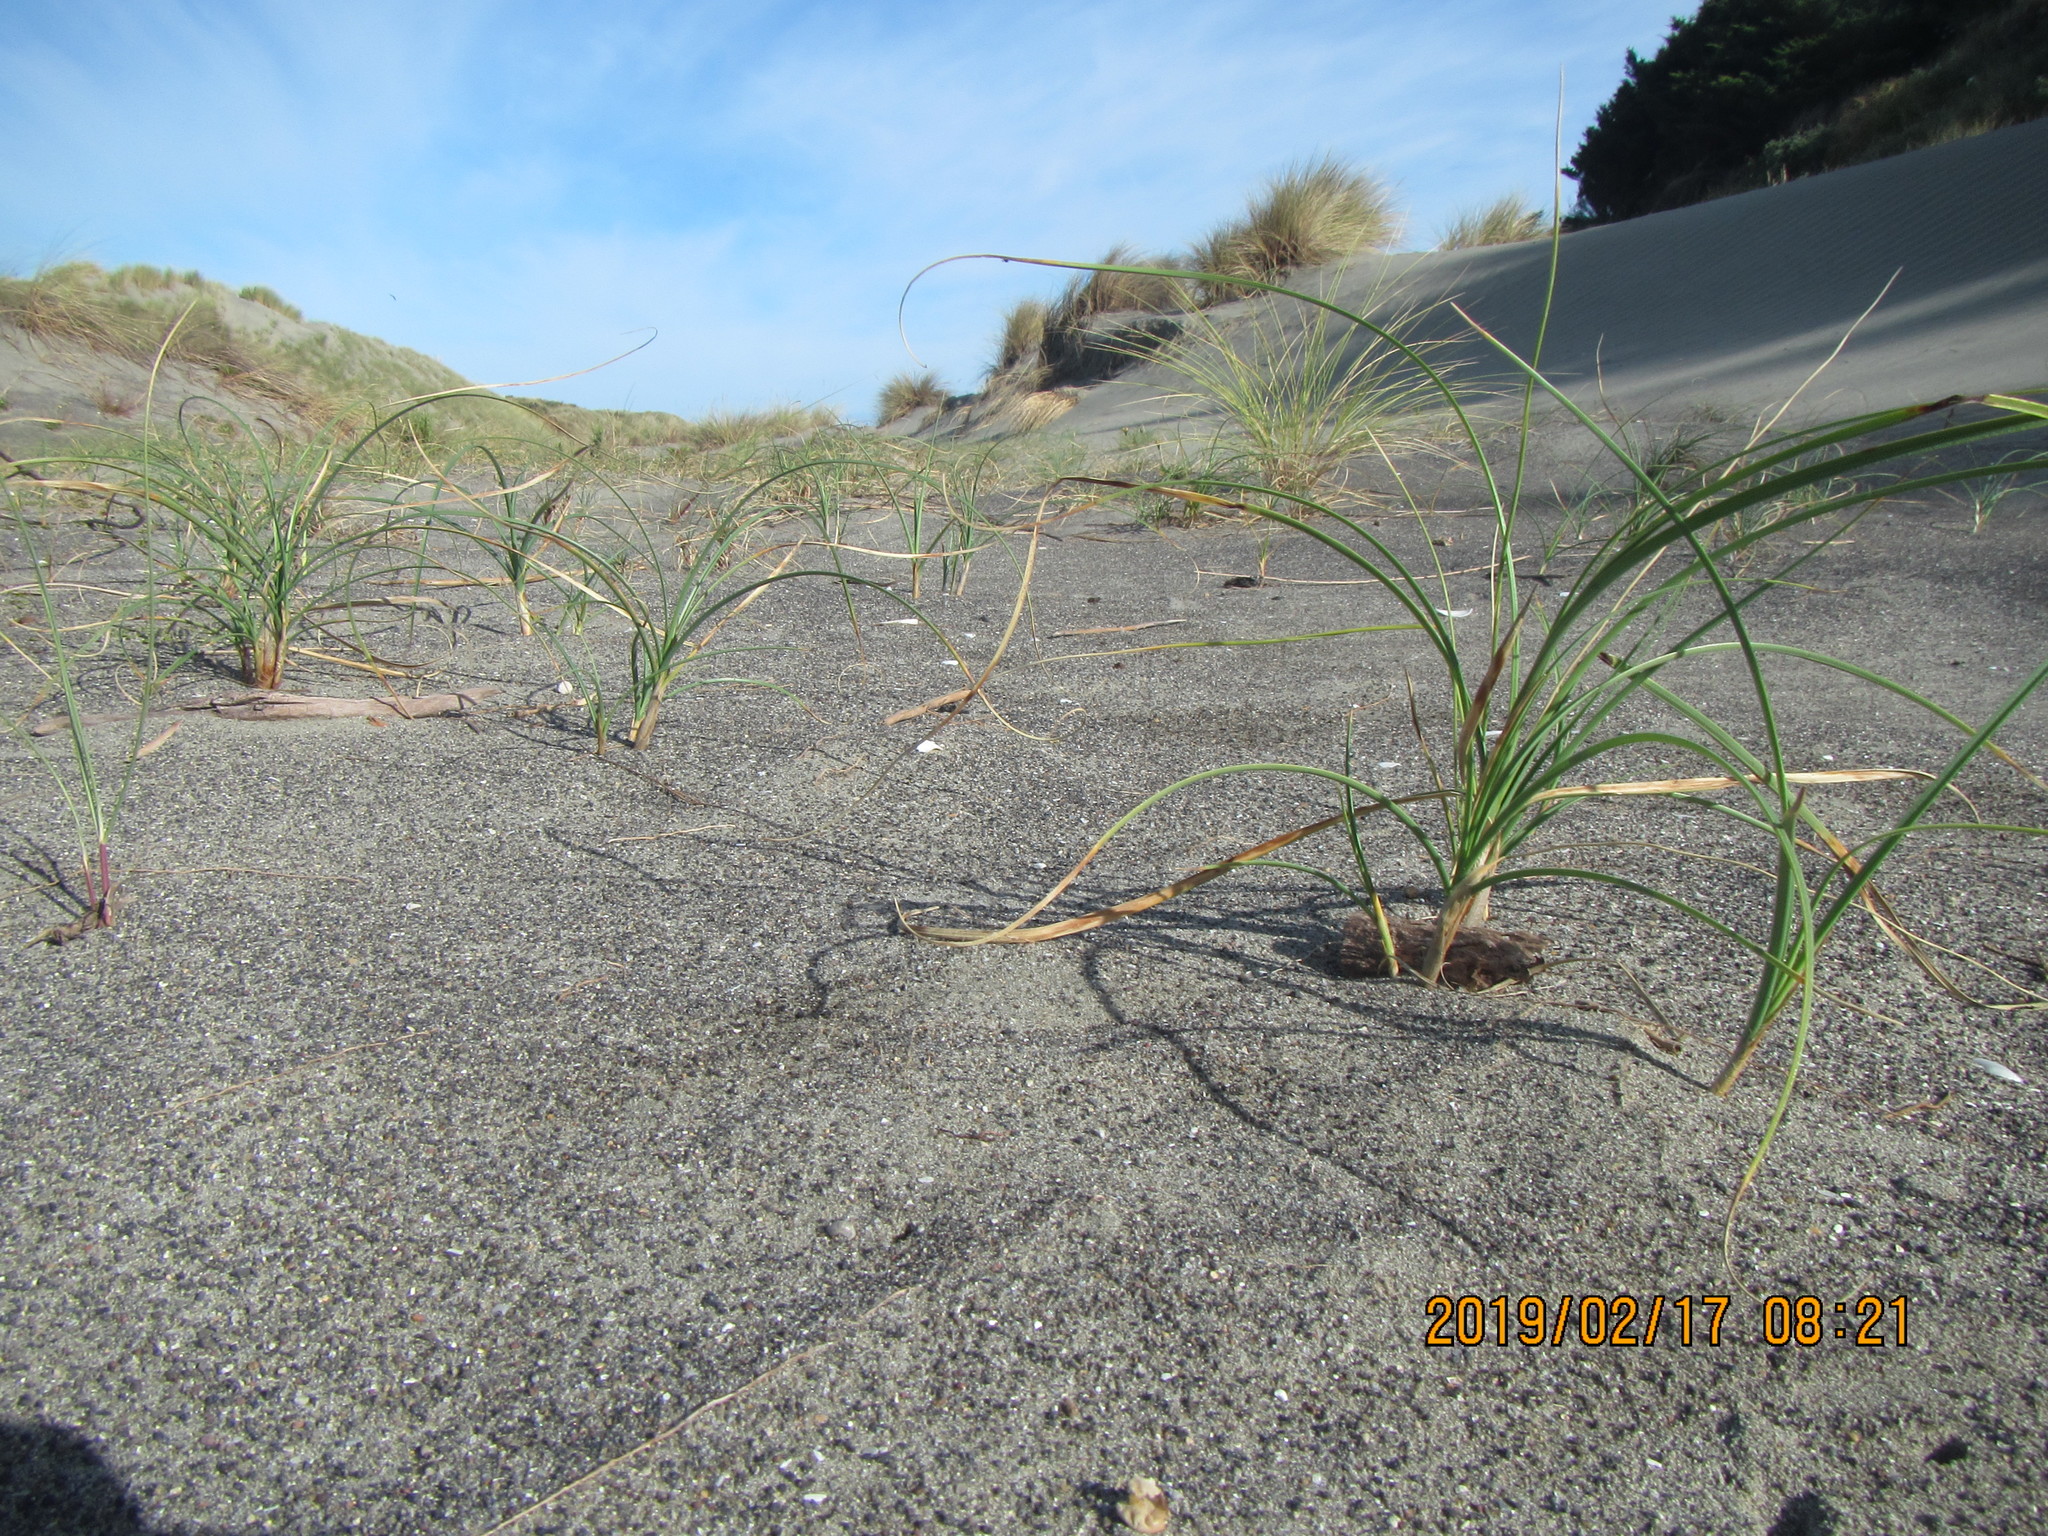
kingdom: Plantae
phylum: Tracheophyta
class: Liliopsida
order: Poales
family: Cyperaceae
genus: Carex
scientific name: Carex pumila
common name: Dwarf sedge
